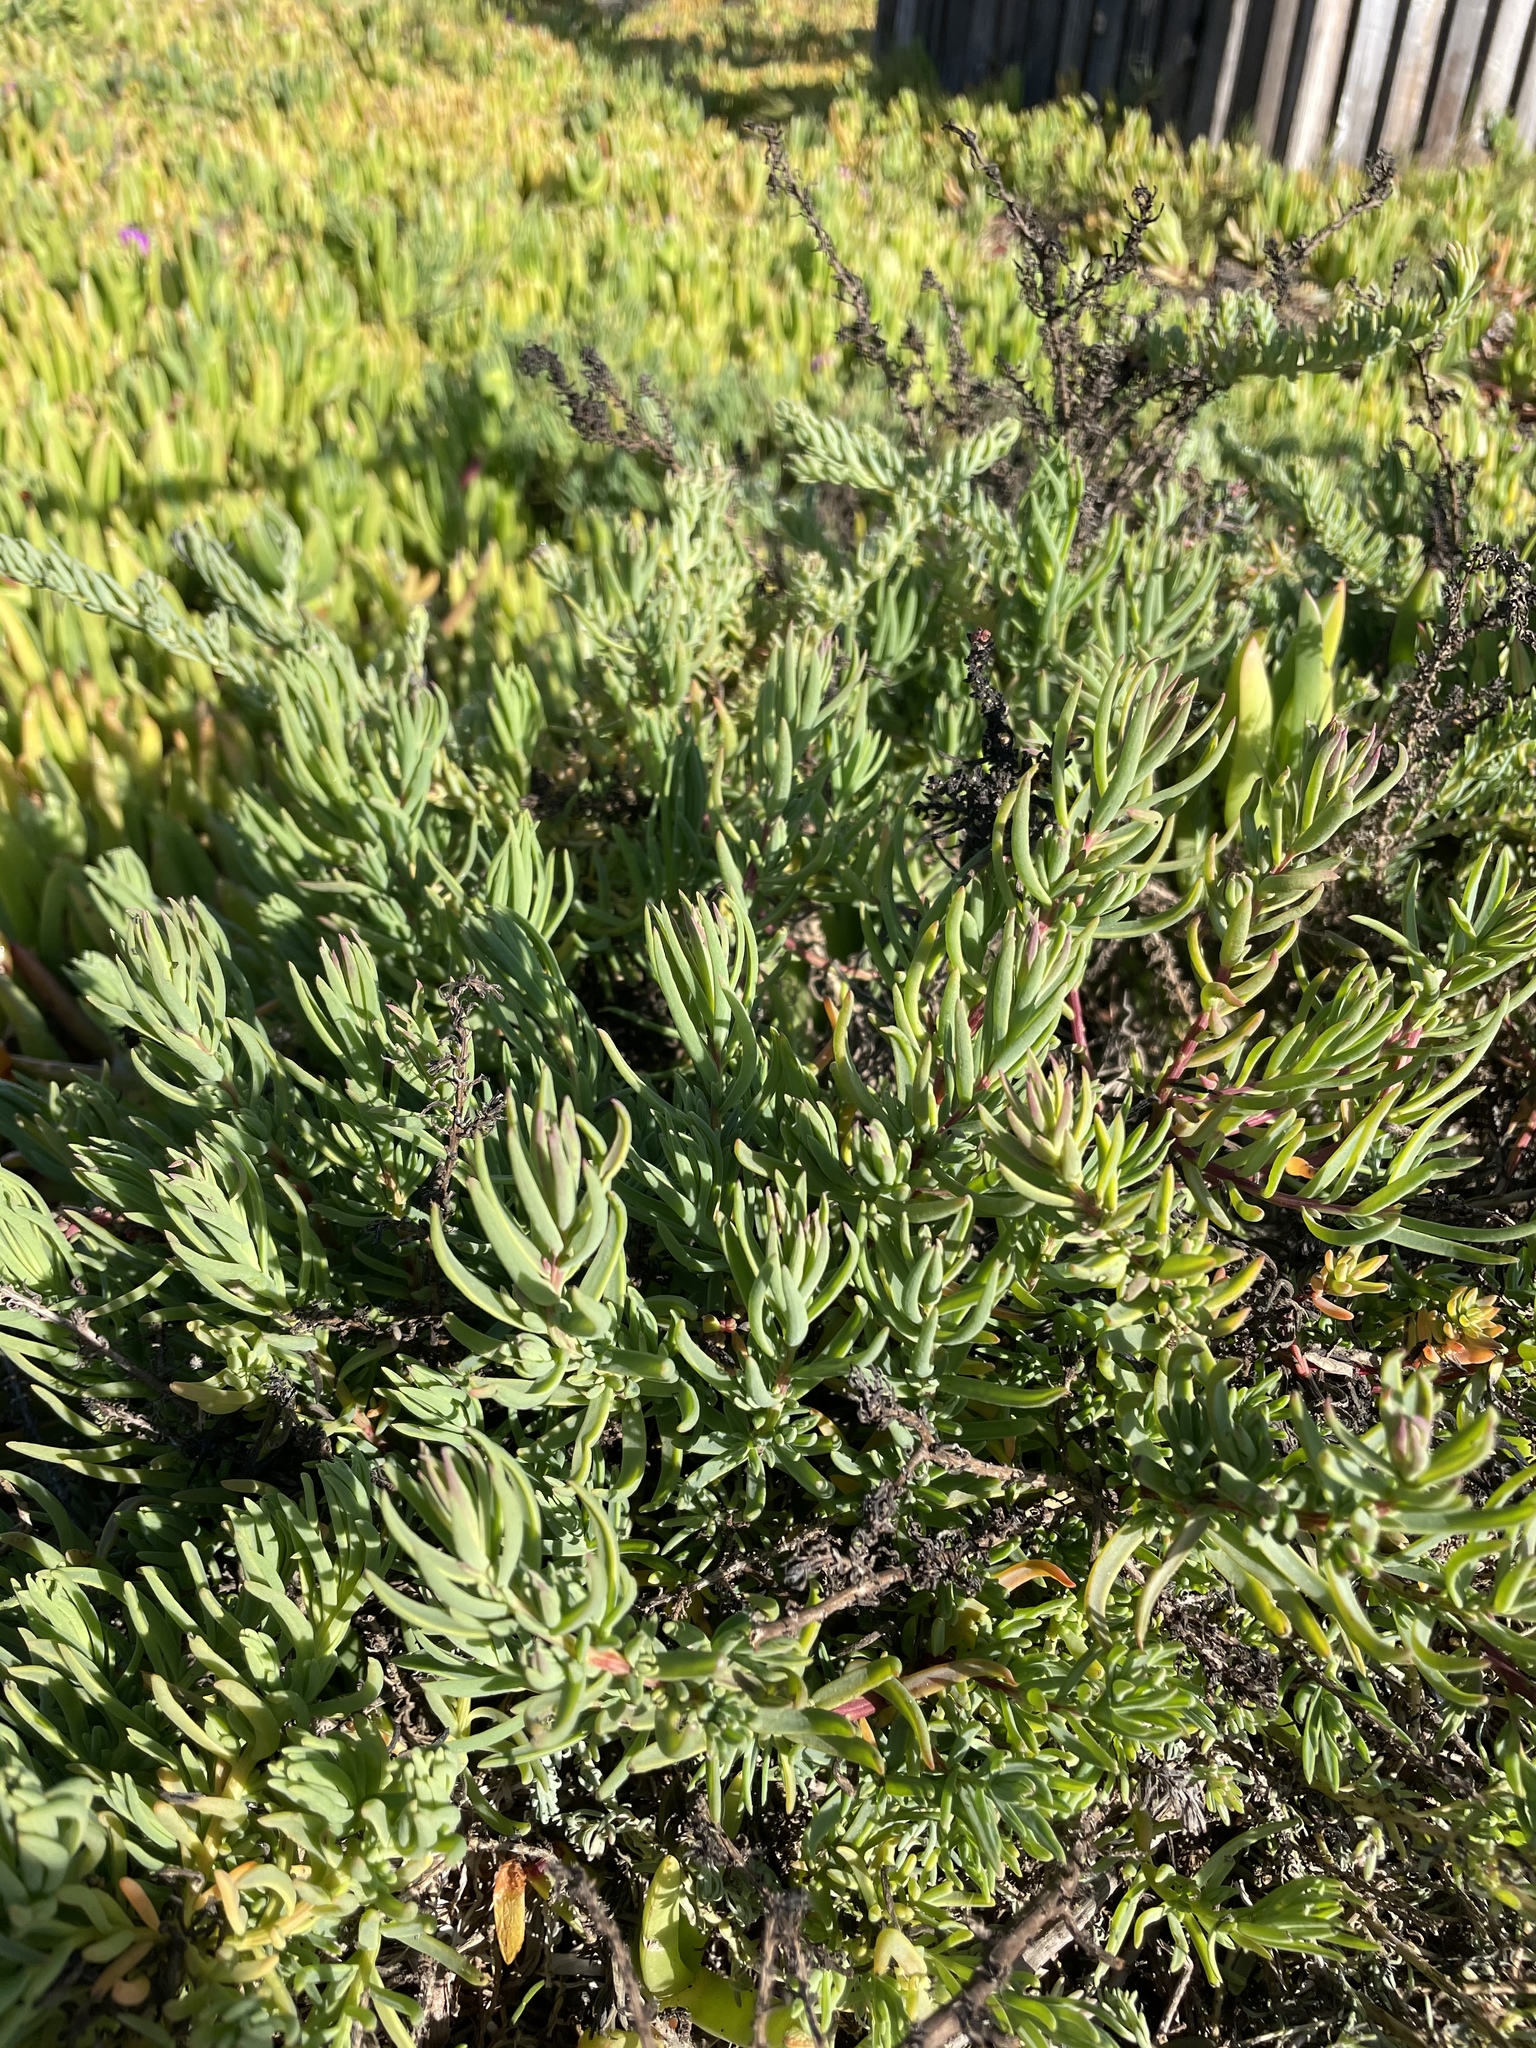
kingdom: Plantae
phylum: Tracheophyta
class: Magnoliopsida
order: Caryophyllales
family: Amaranthaceae
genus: Suaeda
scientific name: Suaeda esteroa
